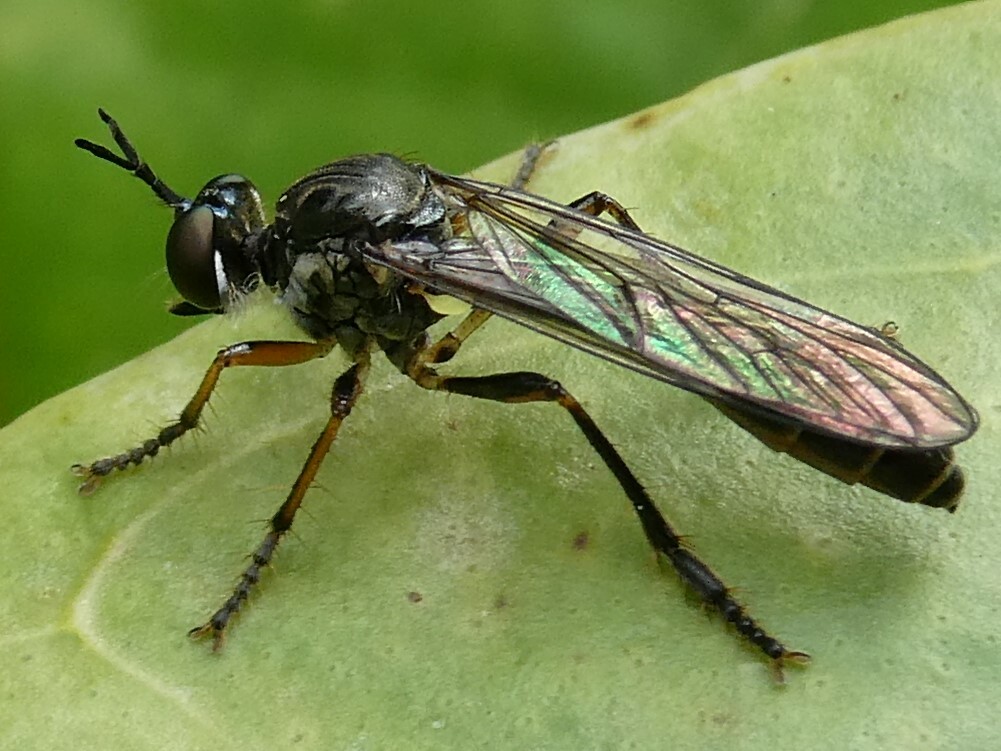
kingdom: Animalia
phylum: Arthropoda
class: Insecta
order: Diptera
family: Asilidae
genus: Dioctria
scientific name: Dioctria hyalipennis
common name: Stripe-legged robberfly
